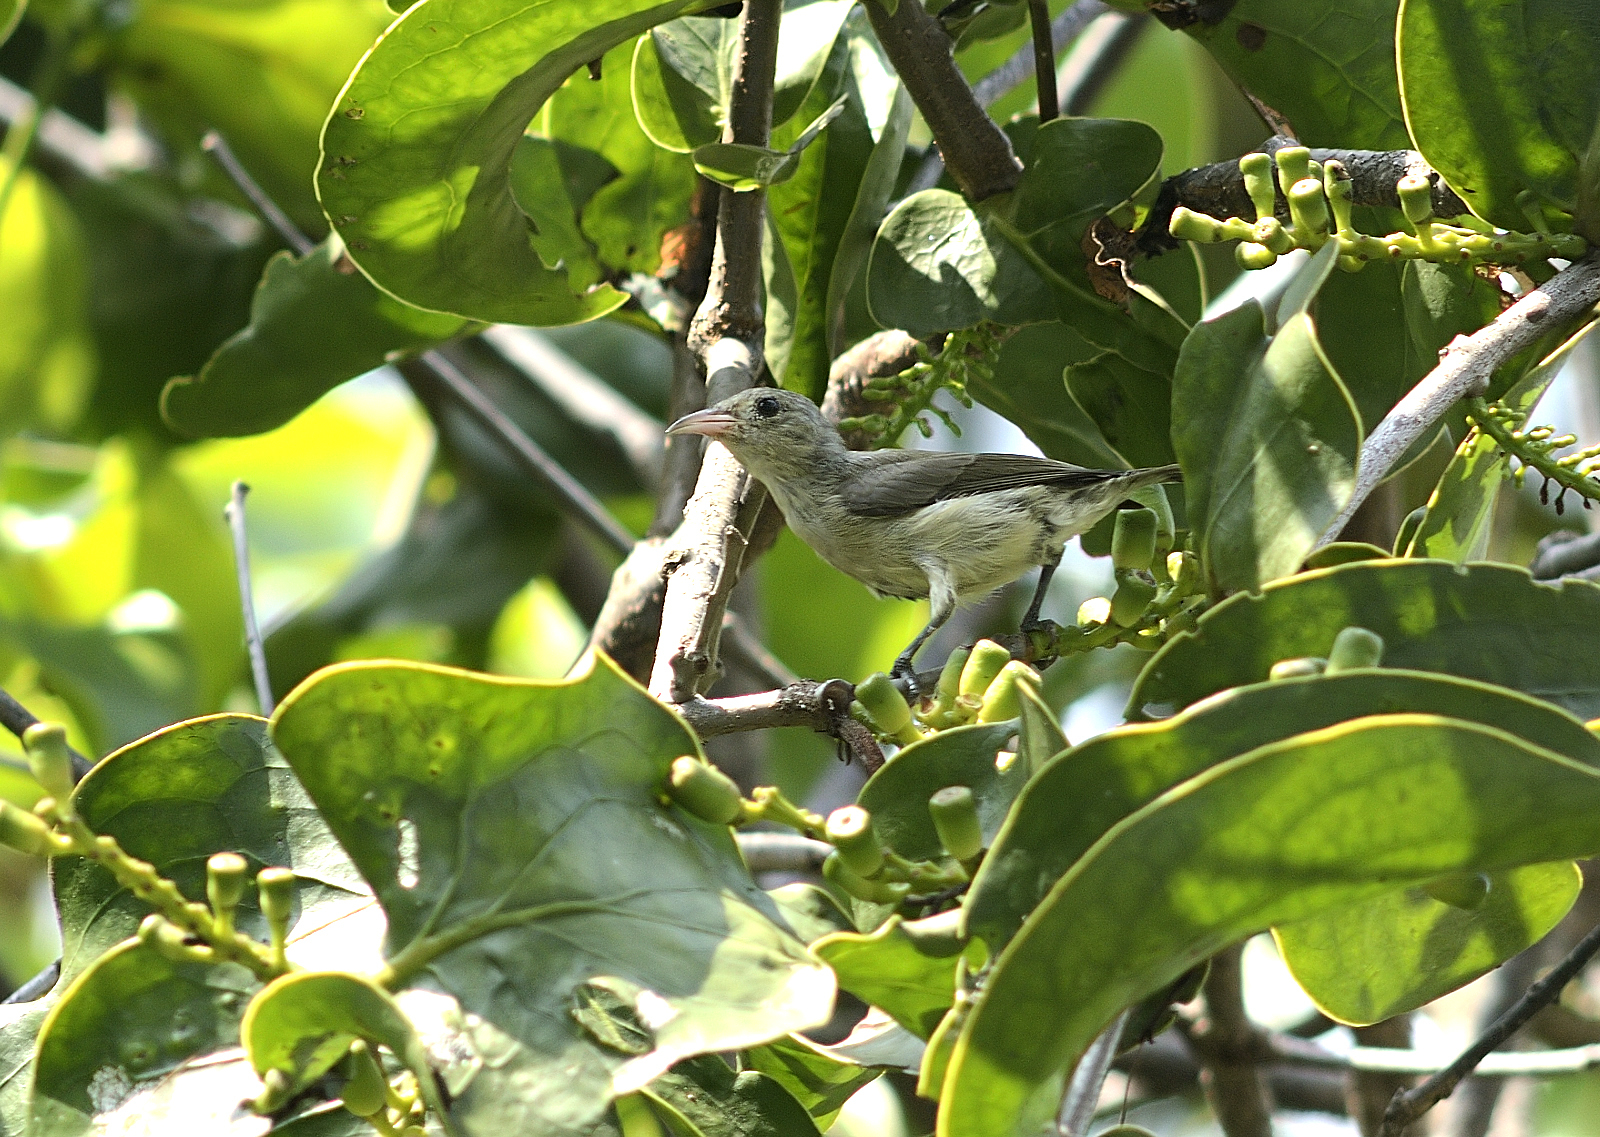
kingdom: Animalia
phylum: Chordata
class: Aves
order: Passeriformes
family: Dicaeidae
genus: Dicaeum
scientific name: Dicaeum erythrorhynchos
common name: Pale-billed flowerpecker
